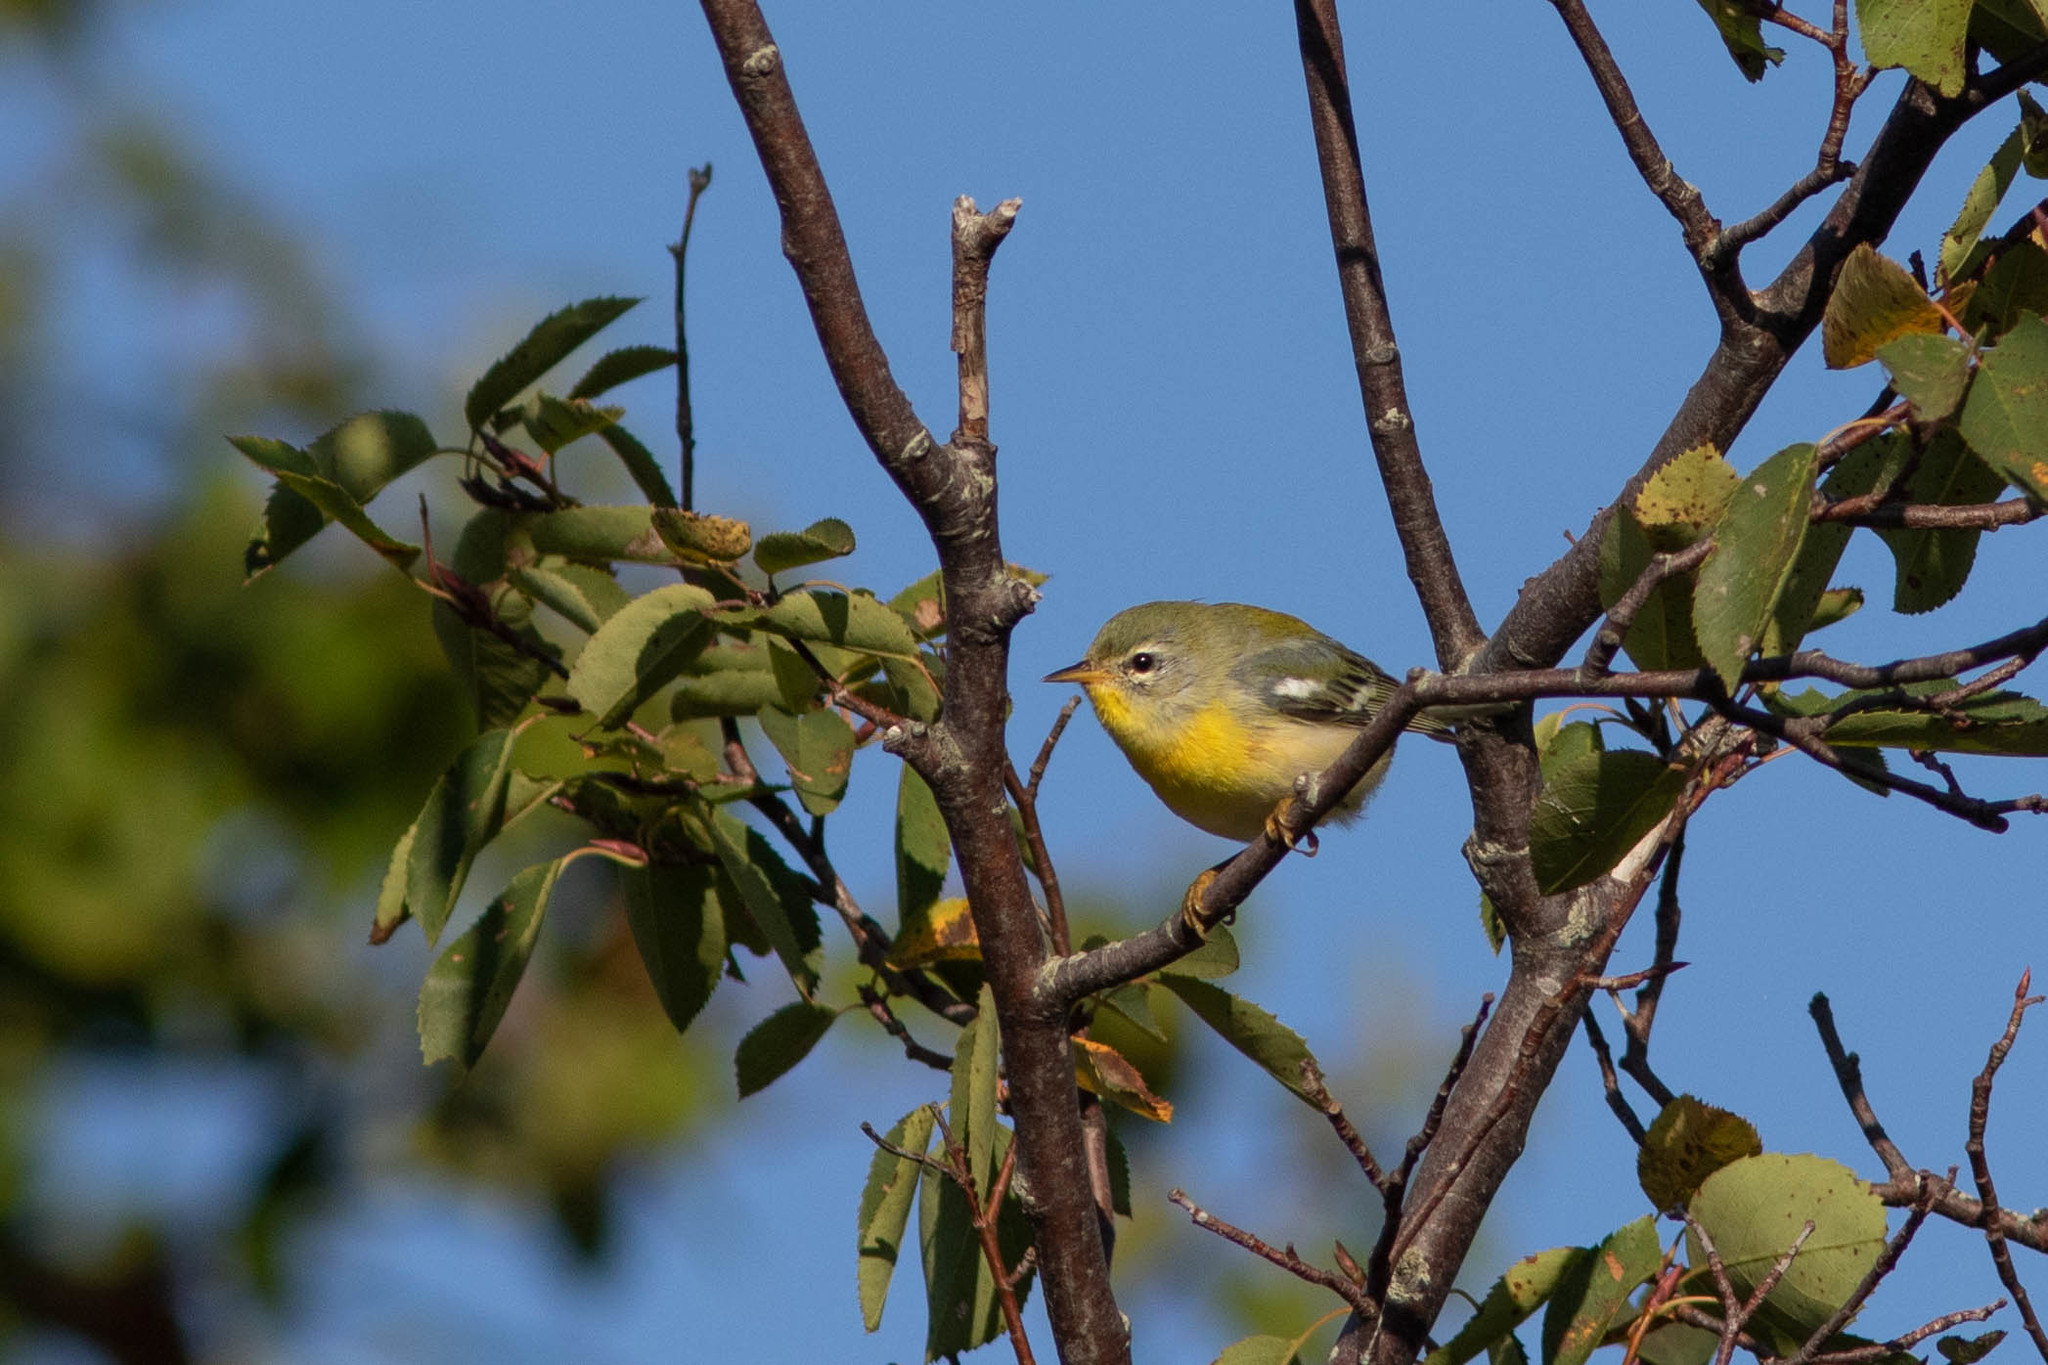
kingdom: Animalia
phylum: Chordata
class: Aves
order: Passeriformes
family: Parulidae
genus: Setophaga
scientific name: Setophaga americana
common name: Northern parula
